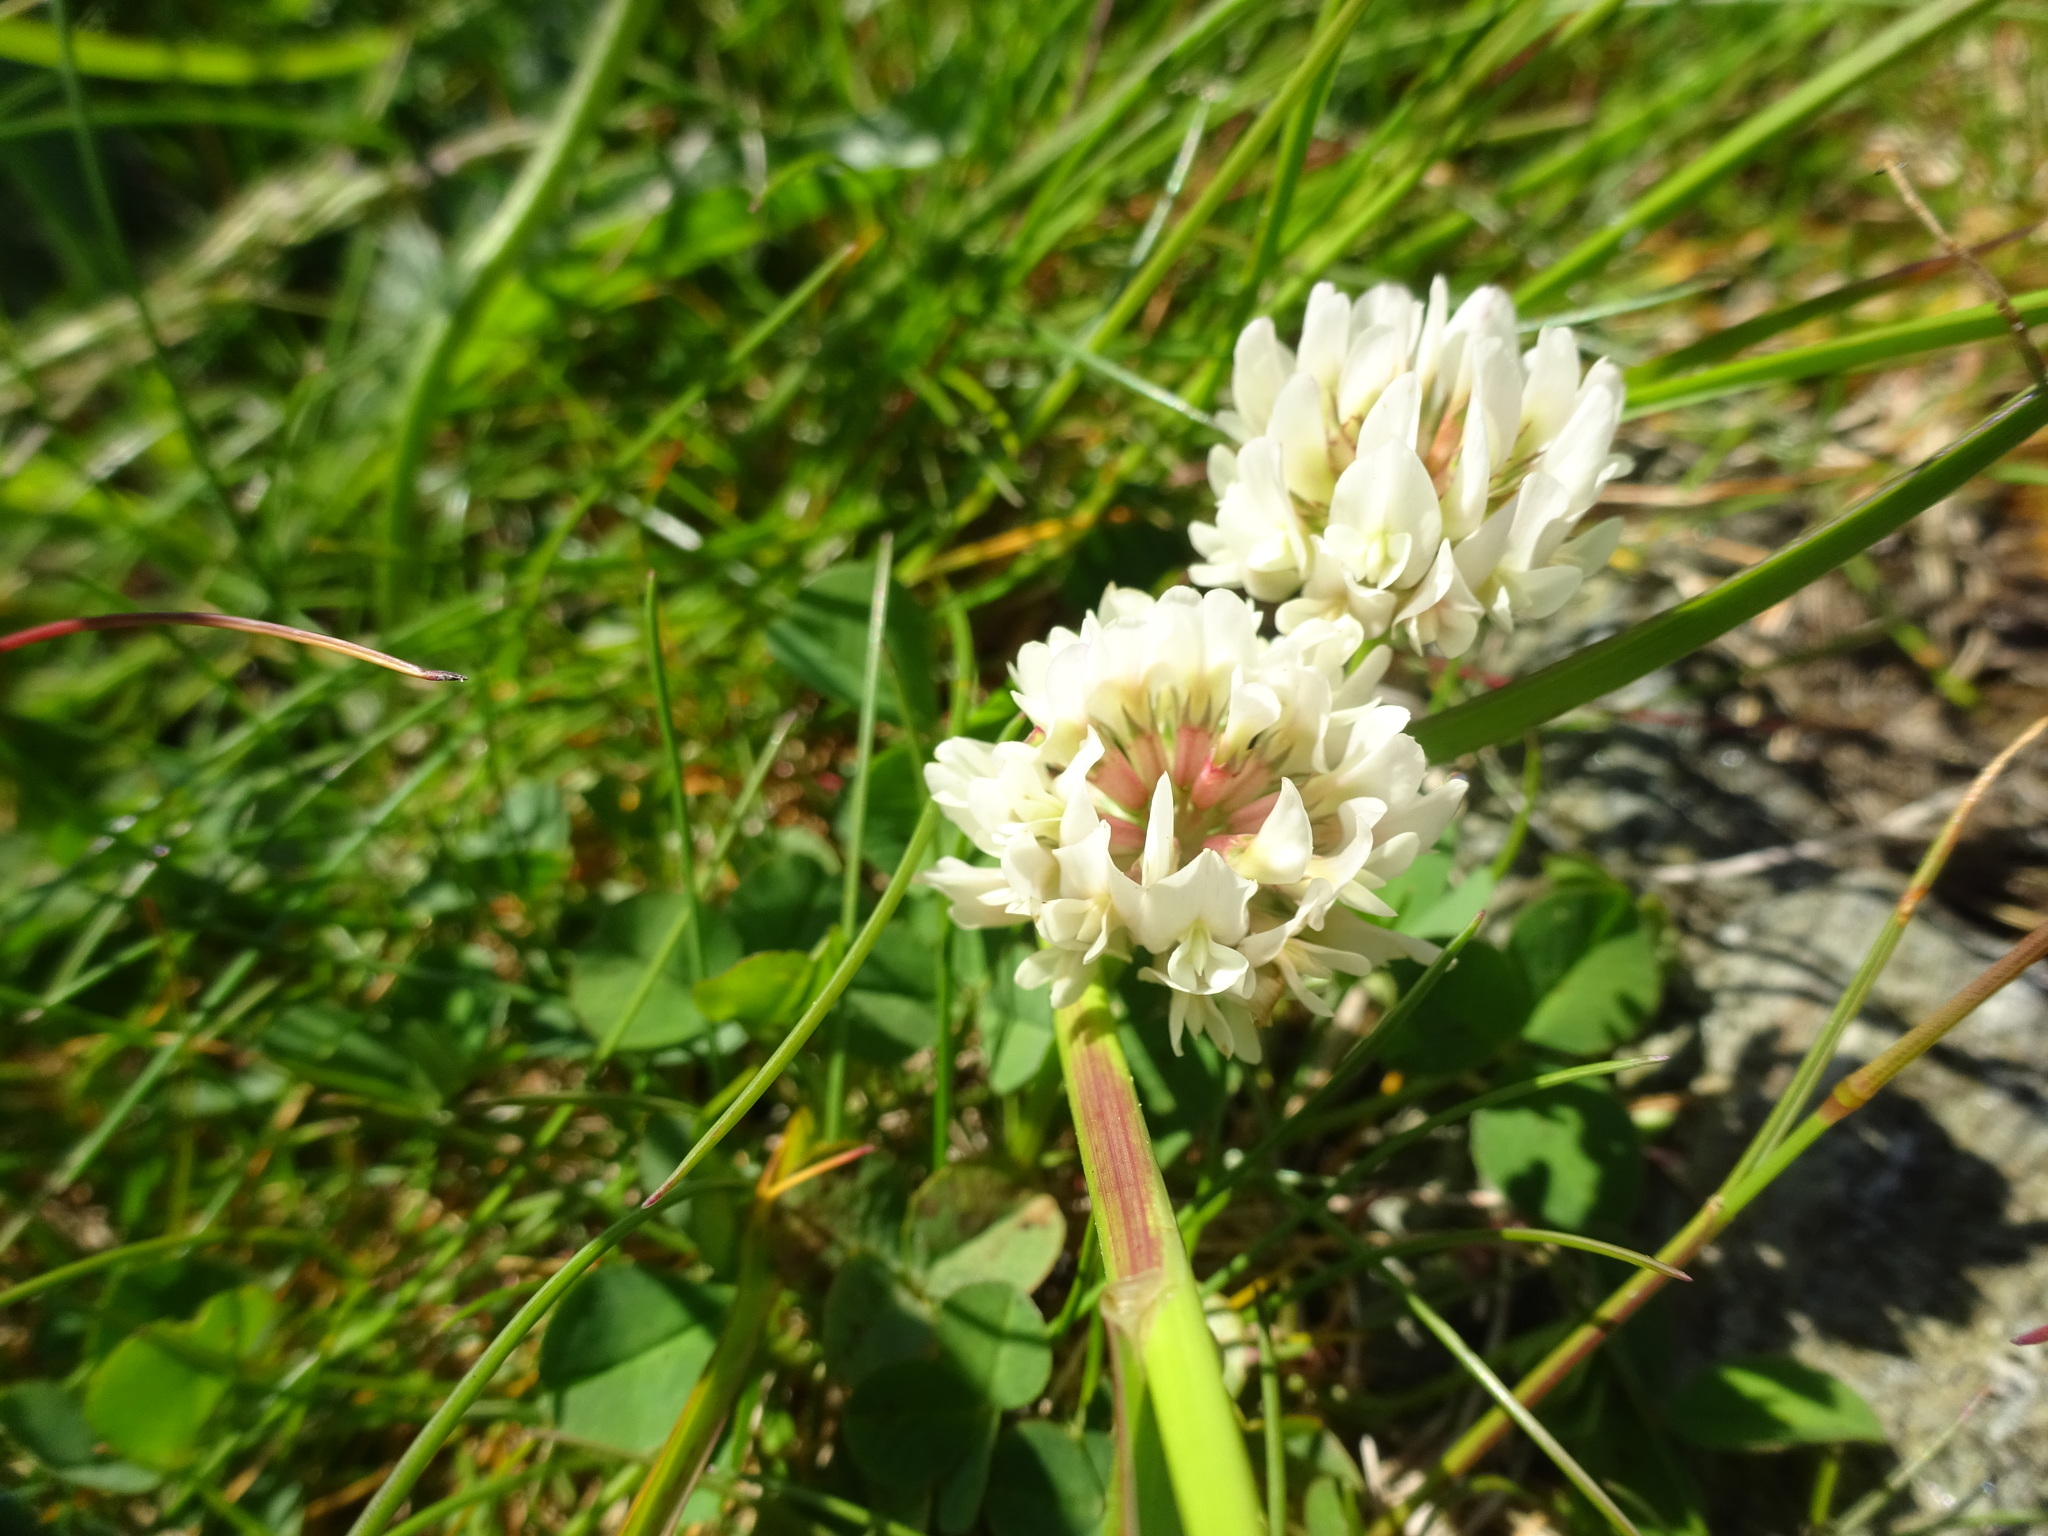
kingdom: Plantae
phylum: Tracheophyta
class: Magnoliopsida
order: Fabales
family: Fabaceae
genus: Trifolium
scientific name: Trifolium repens
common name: White clover
